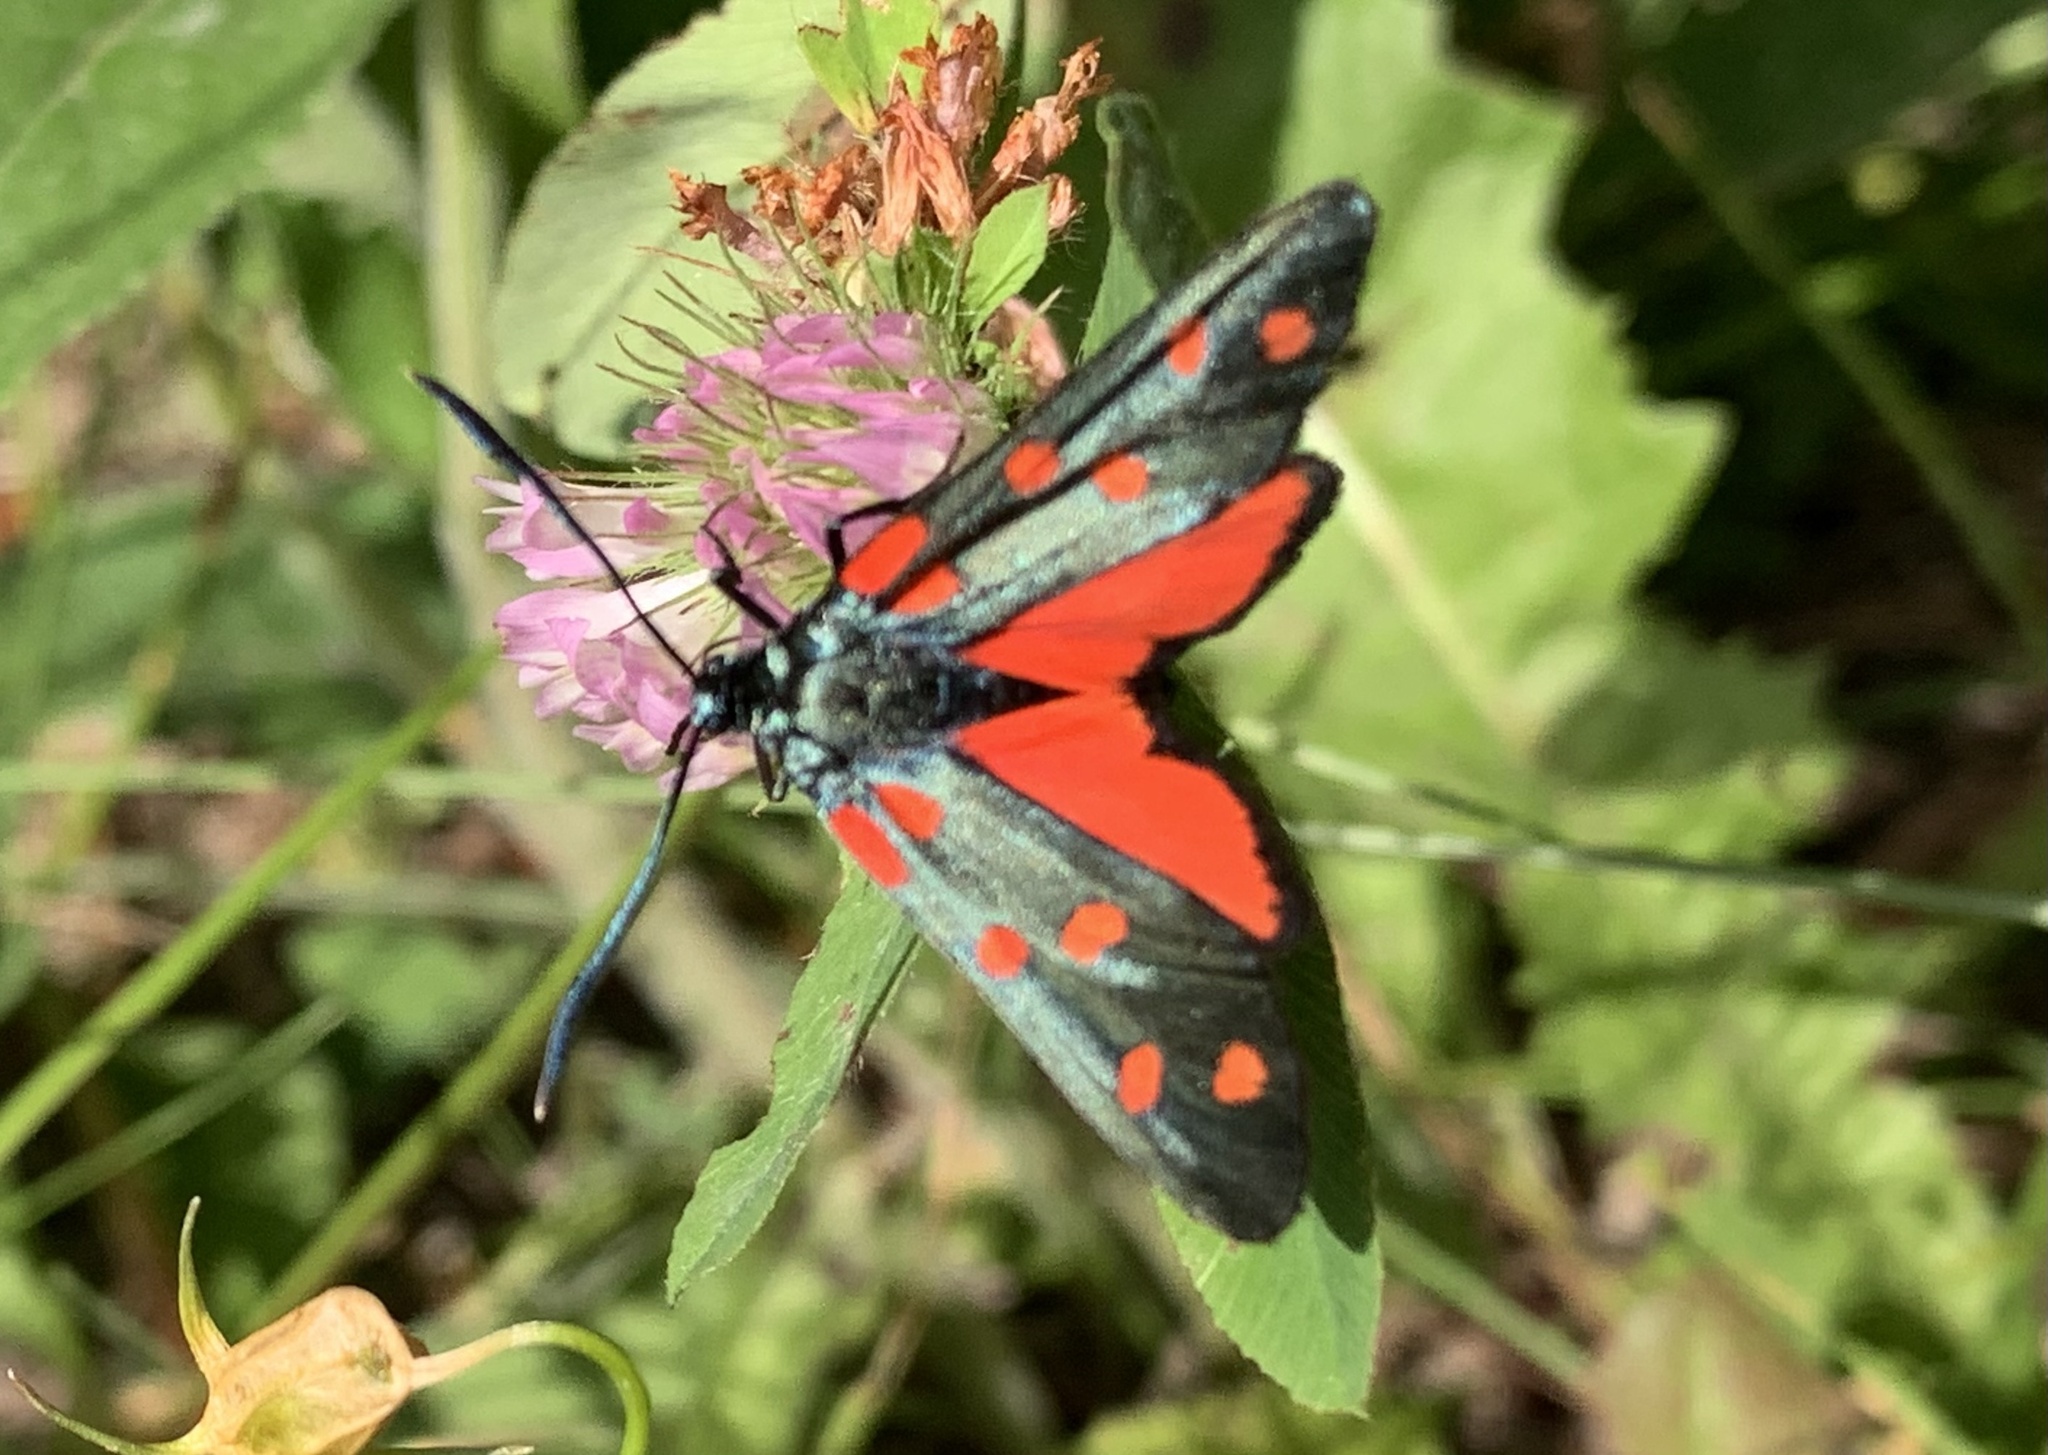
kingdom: Animalia
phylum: Arthropoda
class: Insecta
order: Lepidoptera
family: Zygaenidae
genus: Zygaena
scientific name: Zygaena transalpina
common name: Southern six spot burnet
